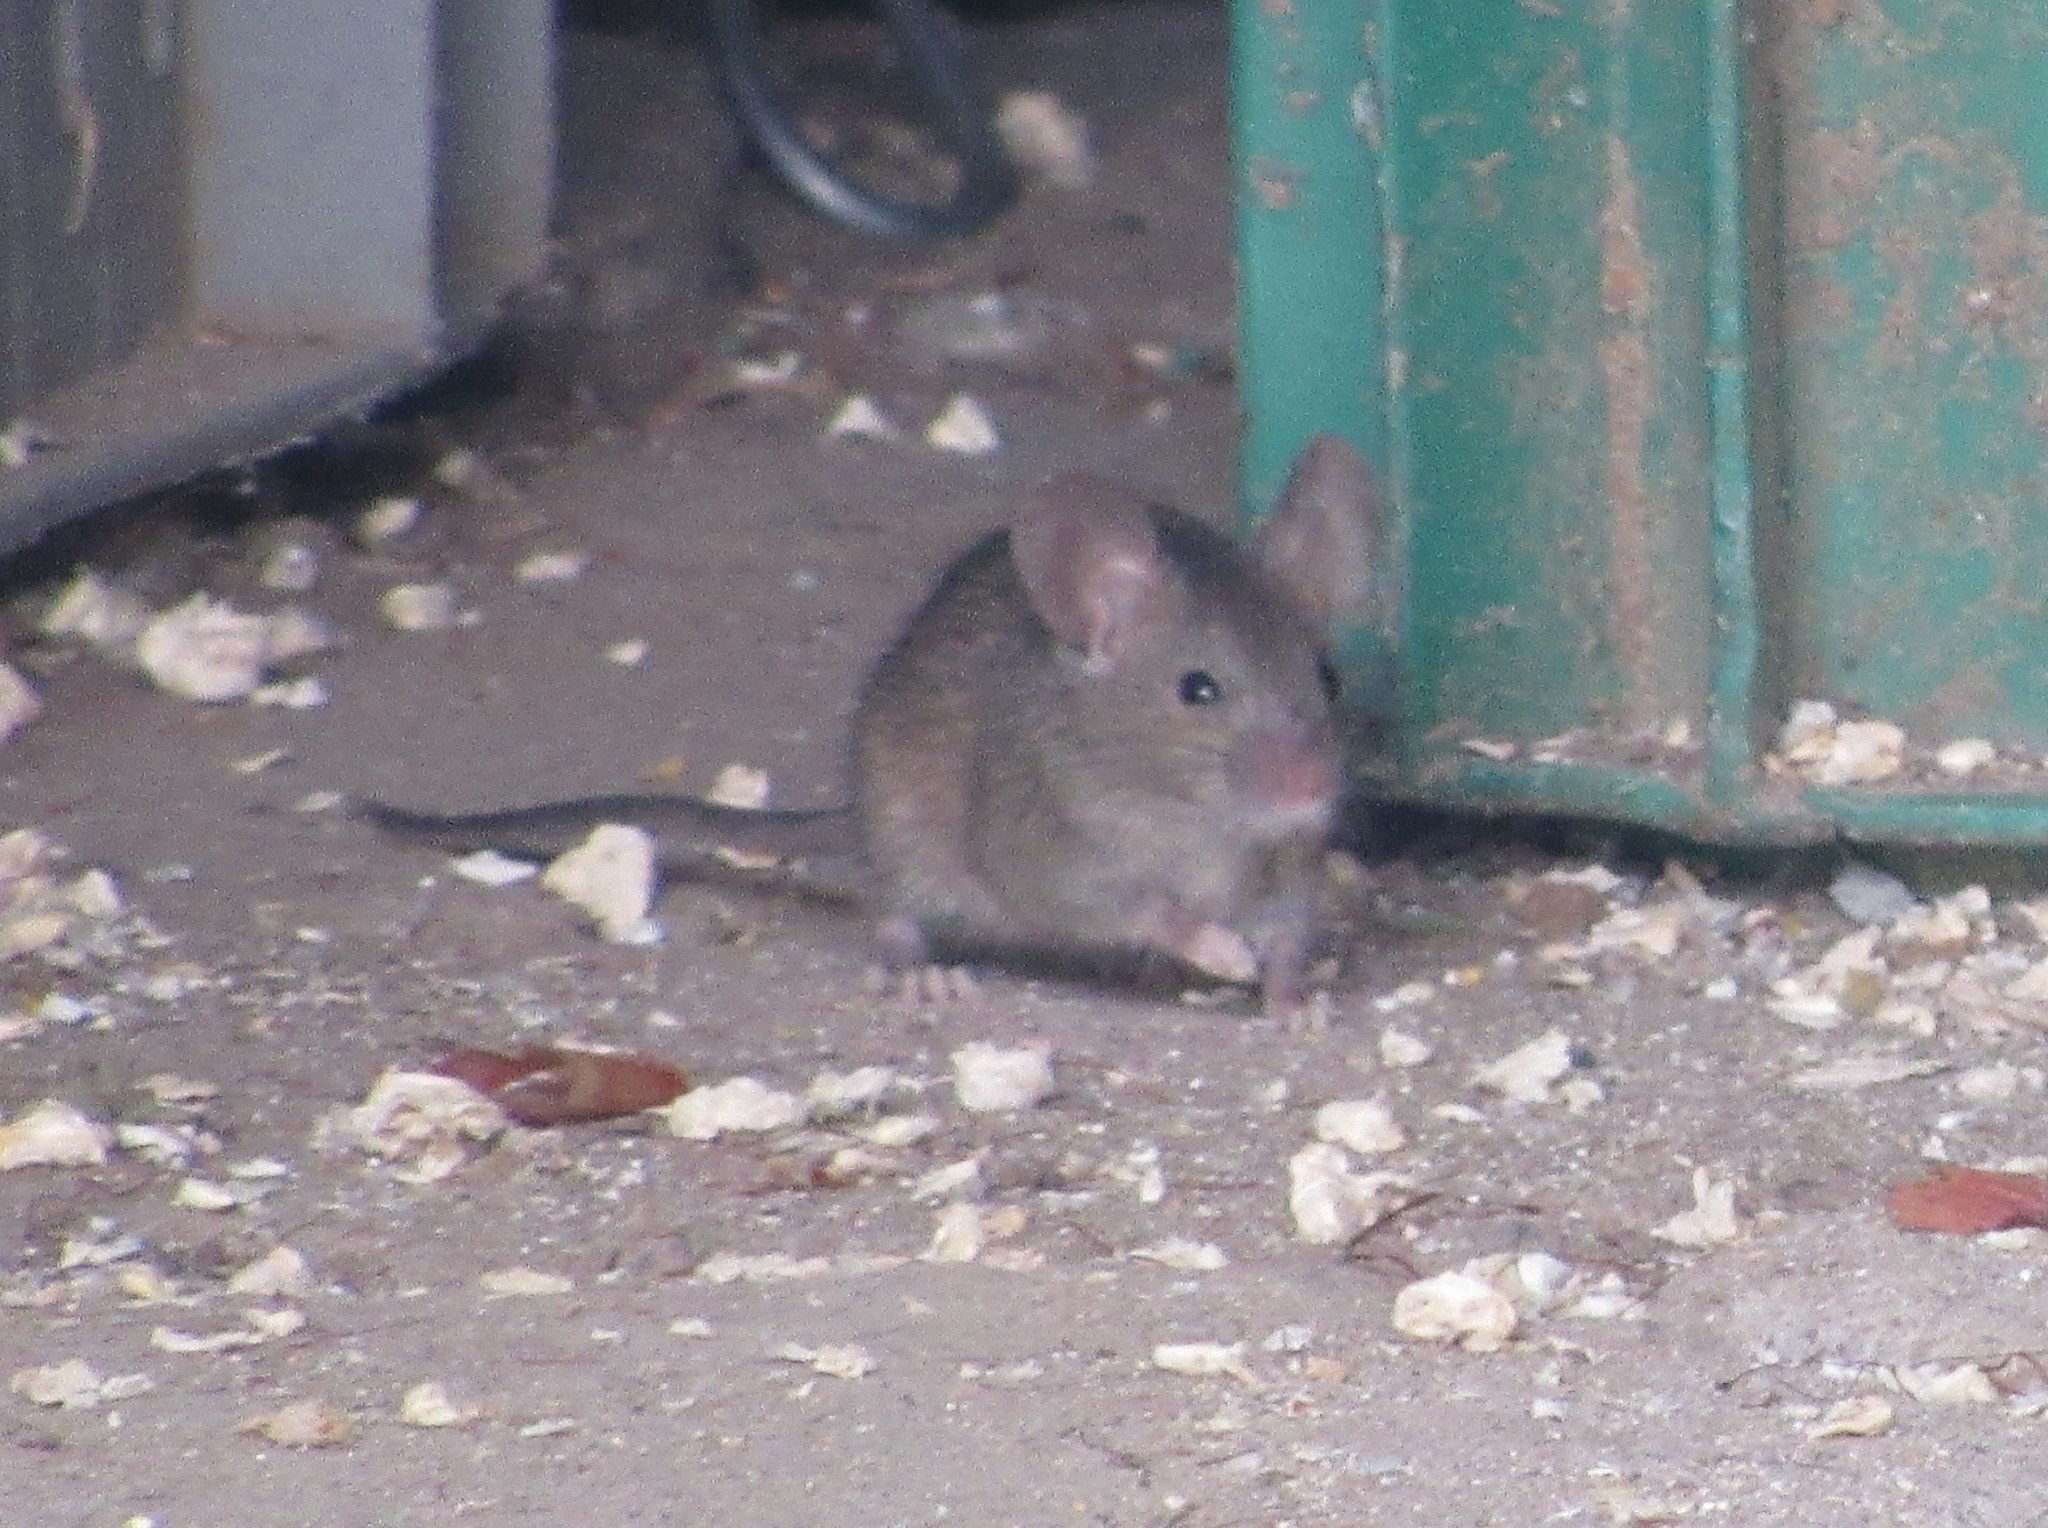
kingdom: Animalia
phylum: Chordata
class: Mammalia
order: Rodentia
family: Muridae
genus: Mus
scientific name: Mus musculus
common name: House mouse
